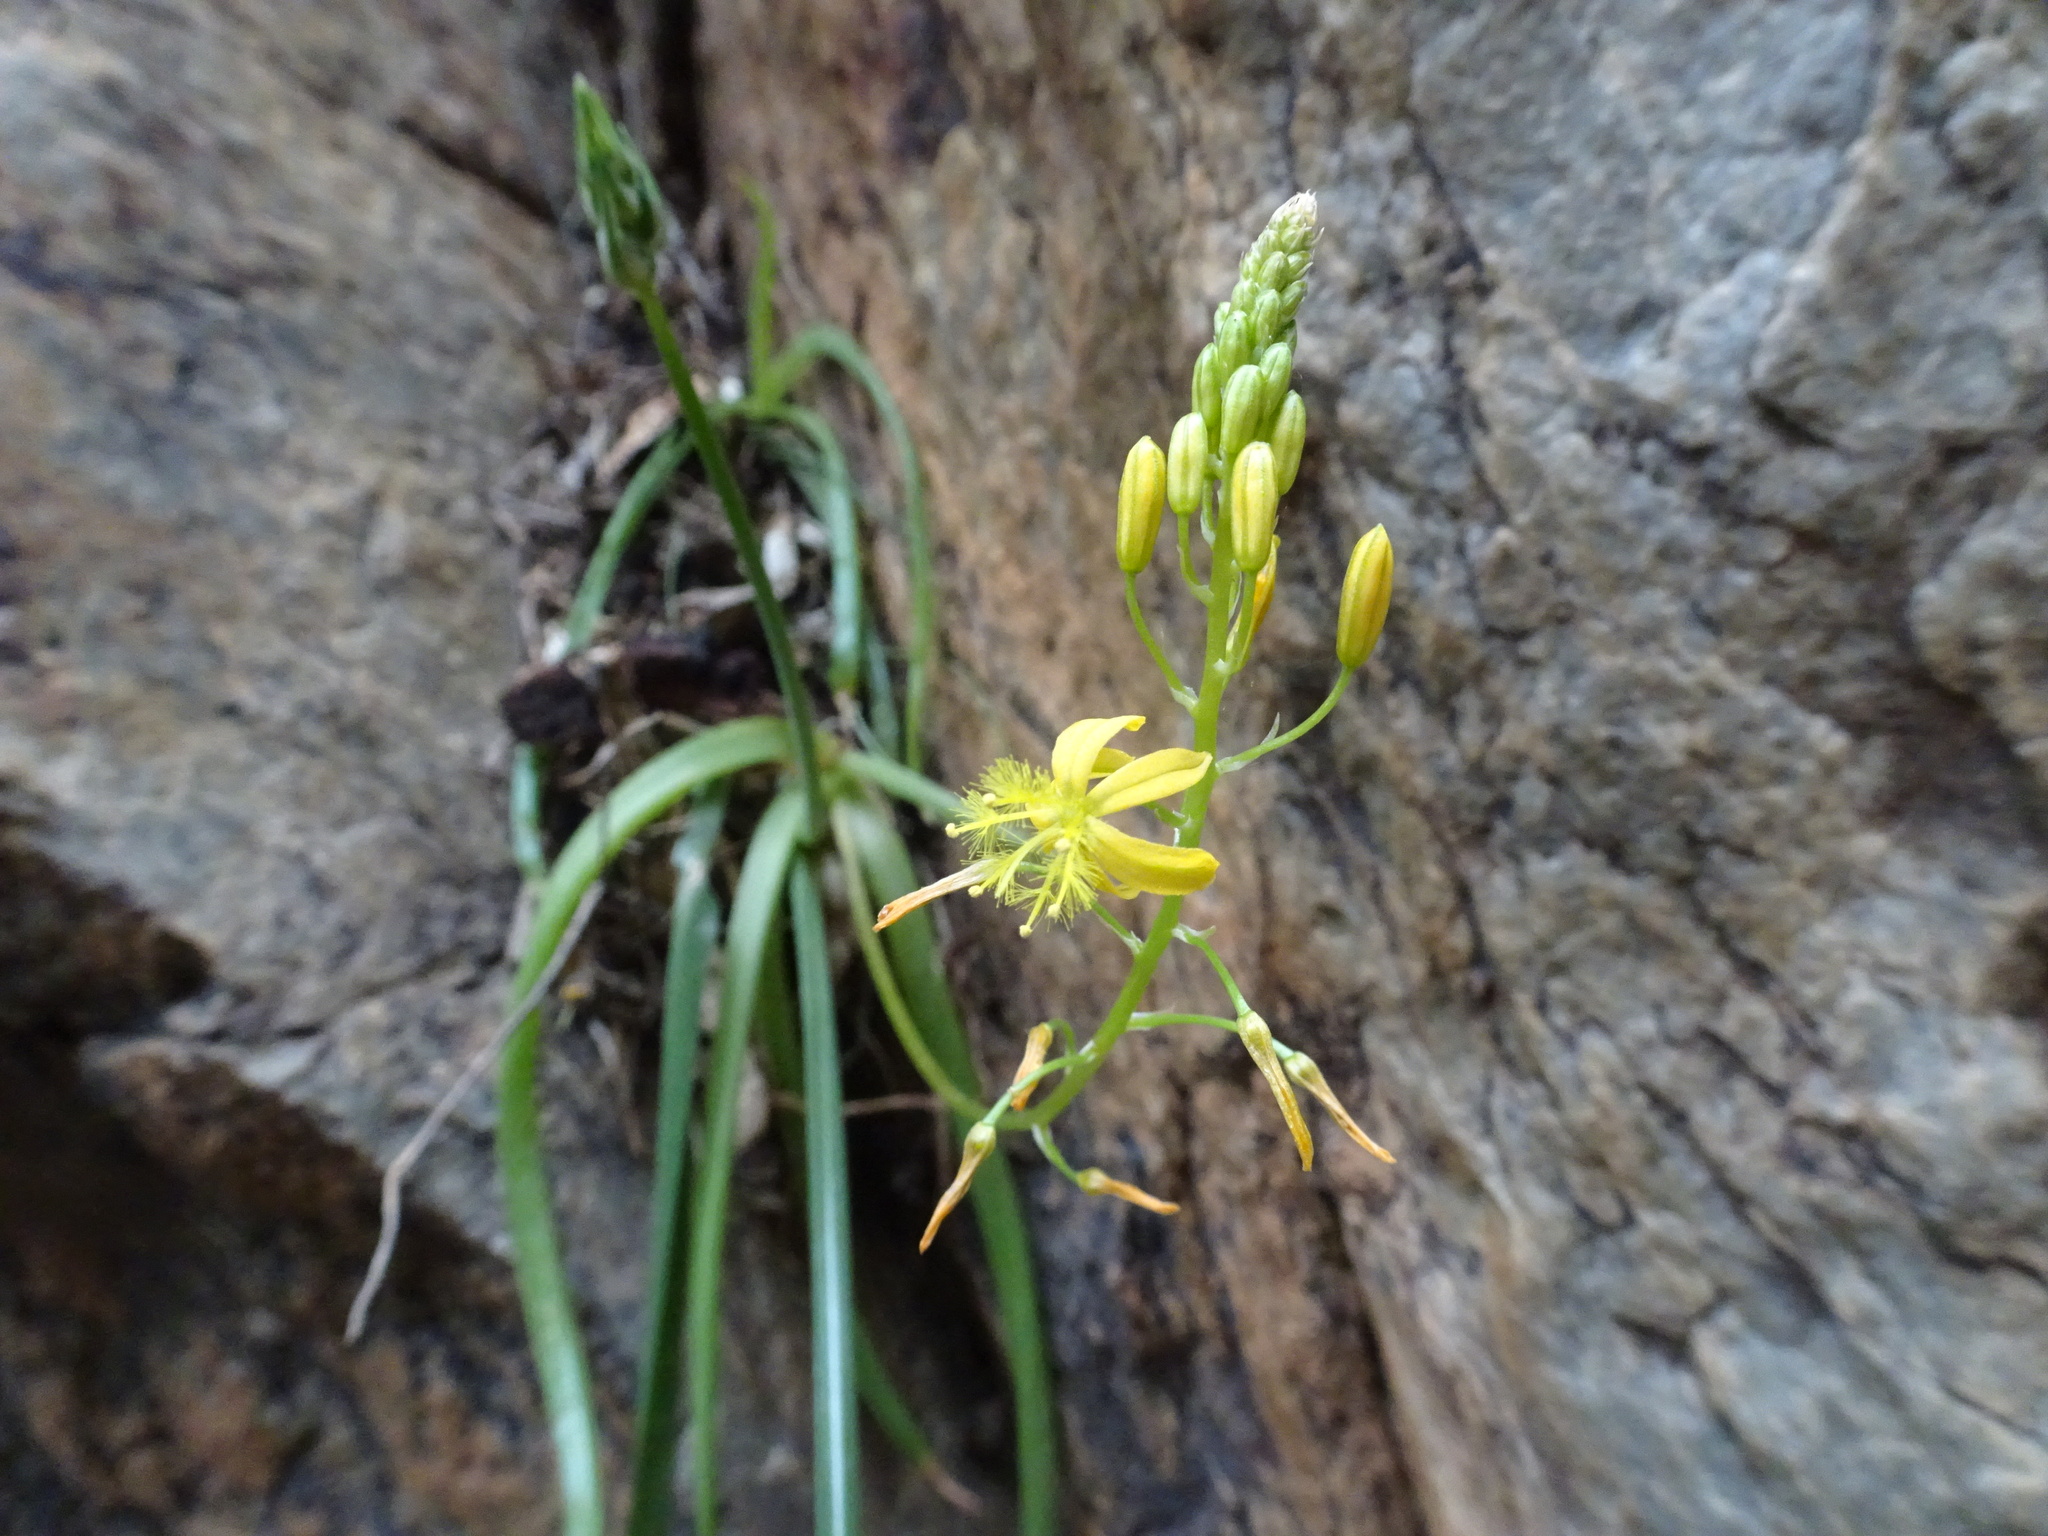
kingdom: Plantae
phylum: Tracheophyta
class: Liliopsida
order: Asparagales
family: Asphodelaceae
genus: Bulbine
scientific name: Bulbine meiringii
